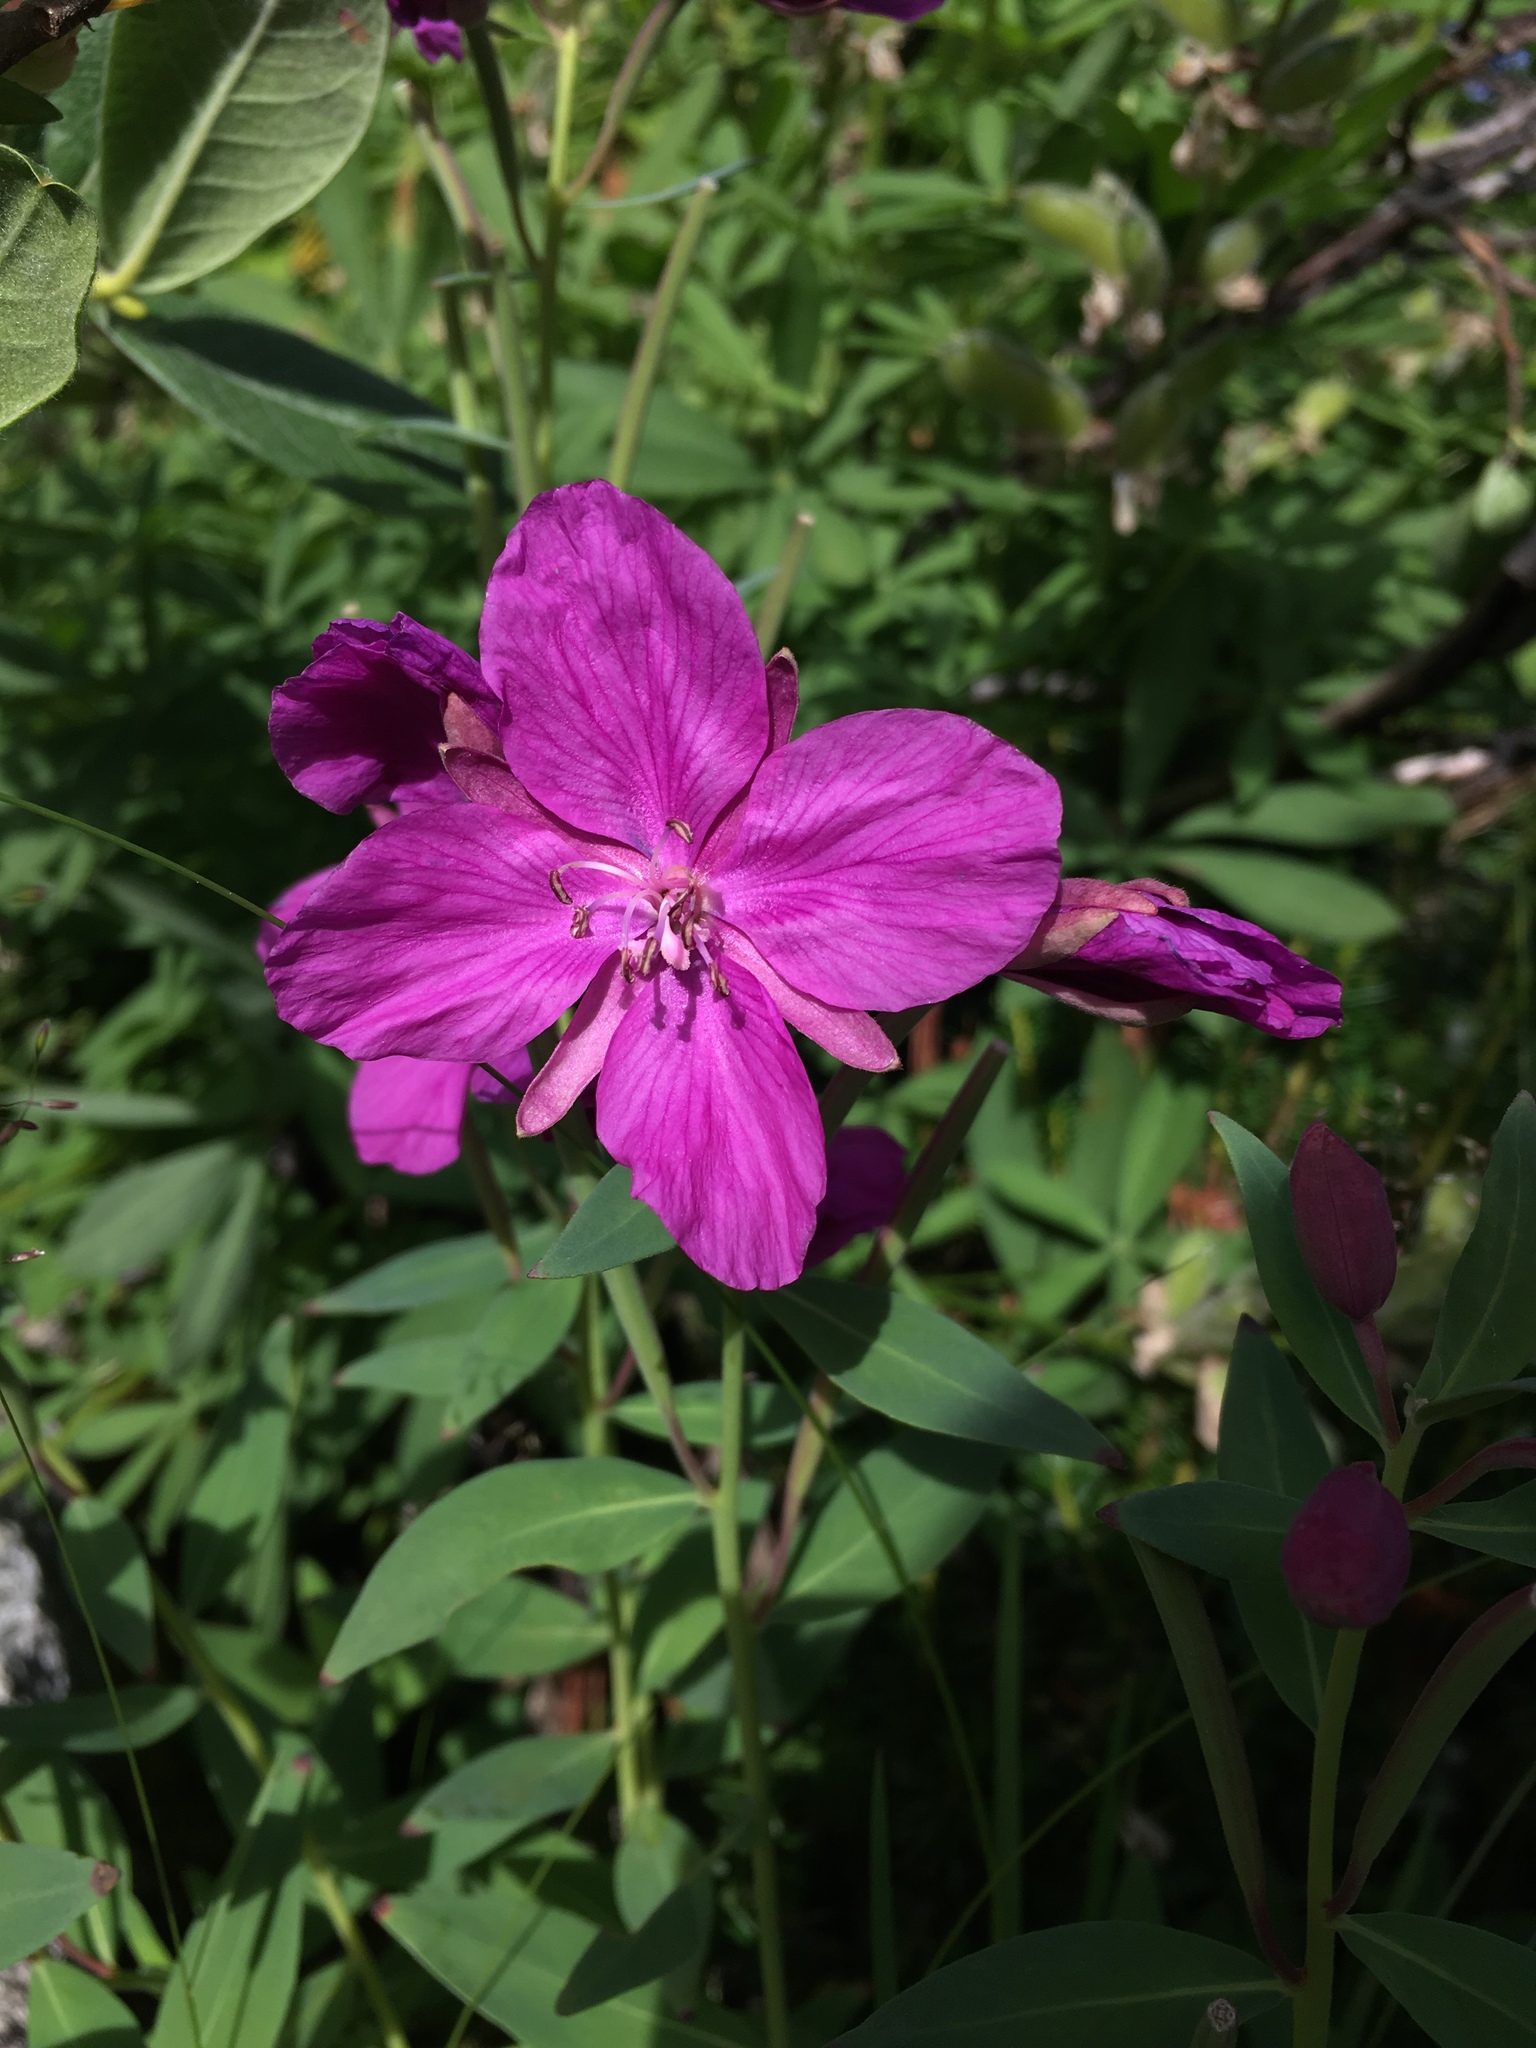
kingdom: Plantae
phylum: Tracheophyta
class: Magnoliopsida
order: Myrtales
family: Onagraceae
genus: Chamaenerion
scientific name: Chamaenerion latifolium
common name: Dwarf fireweed
